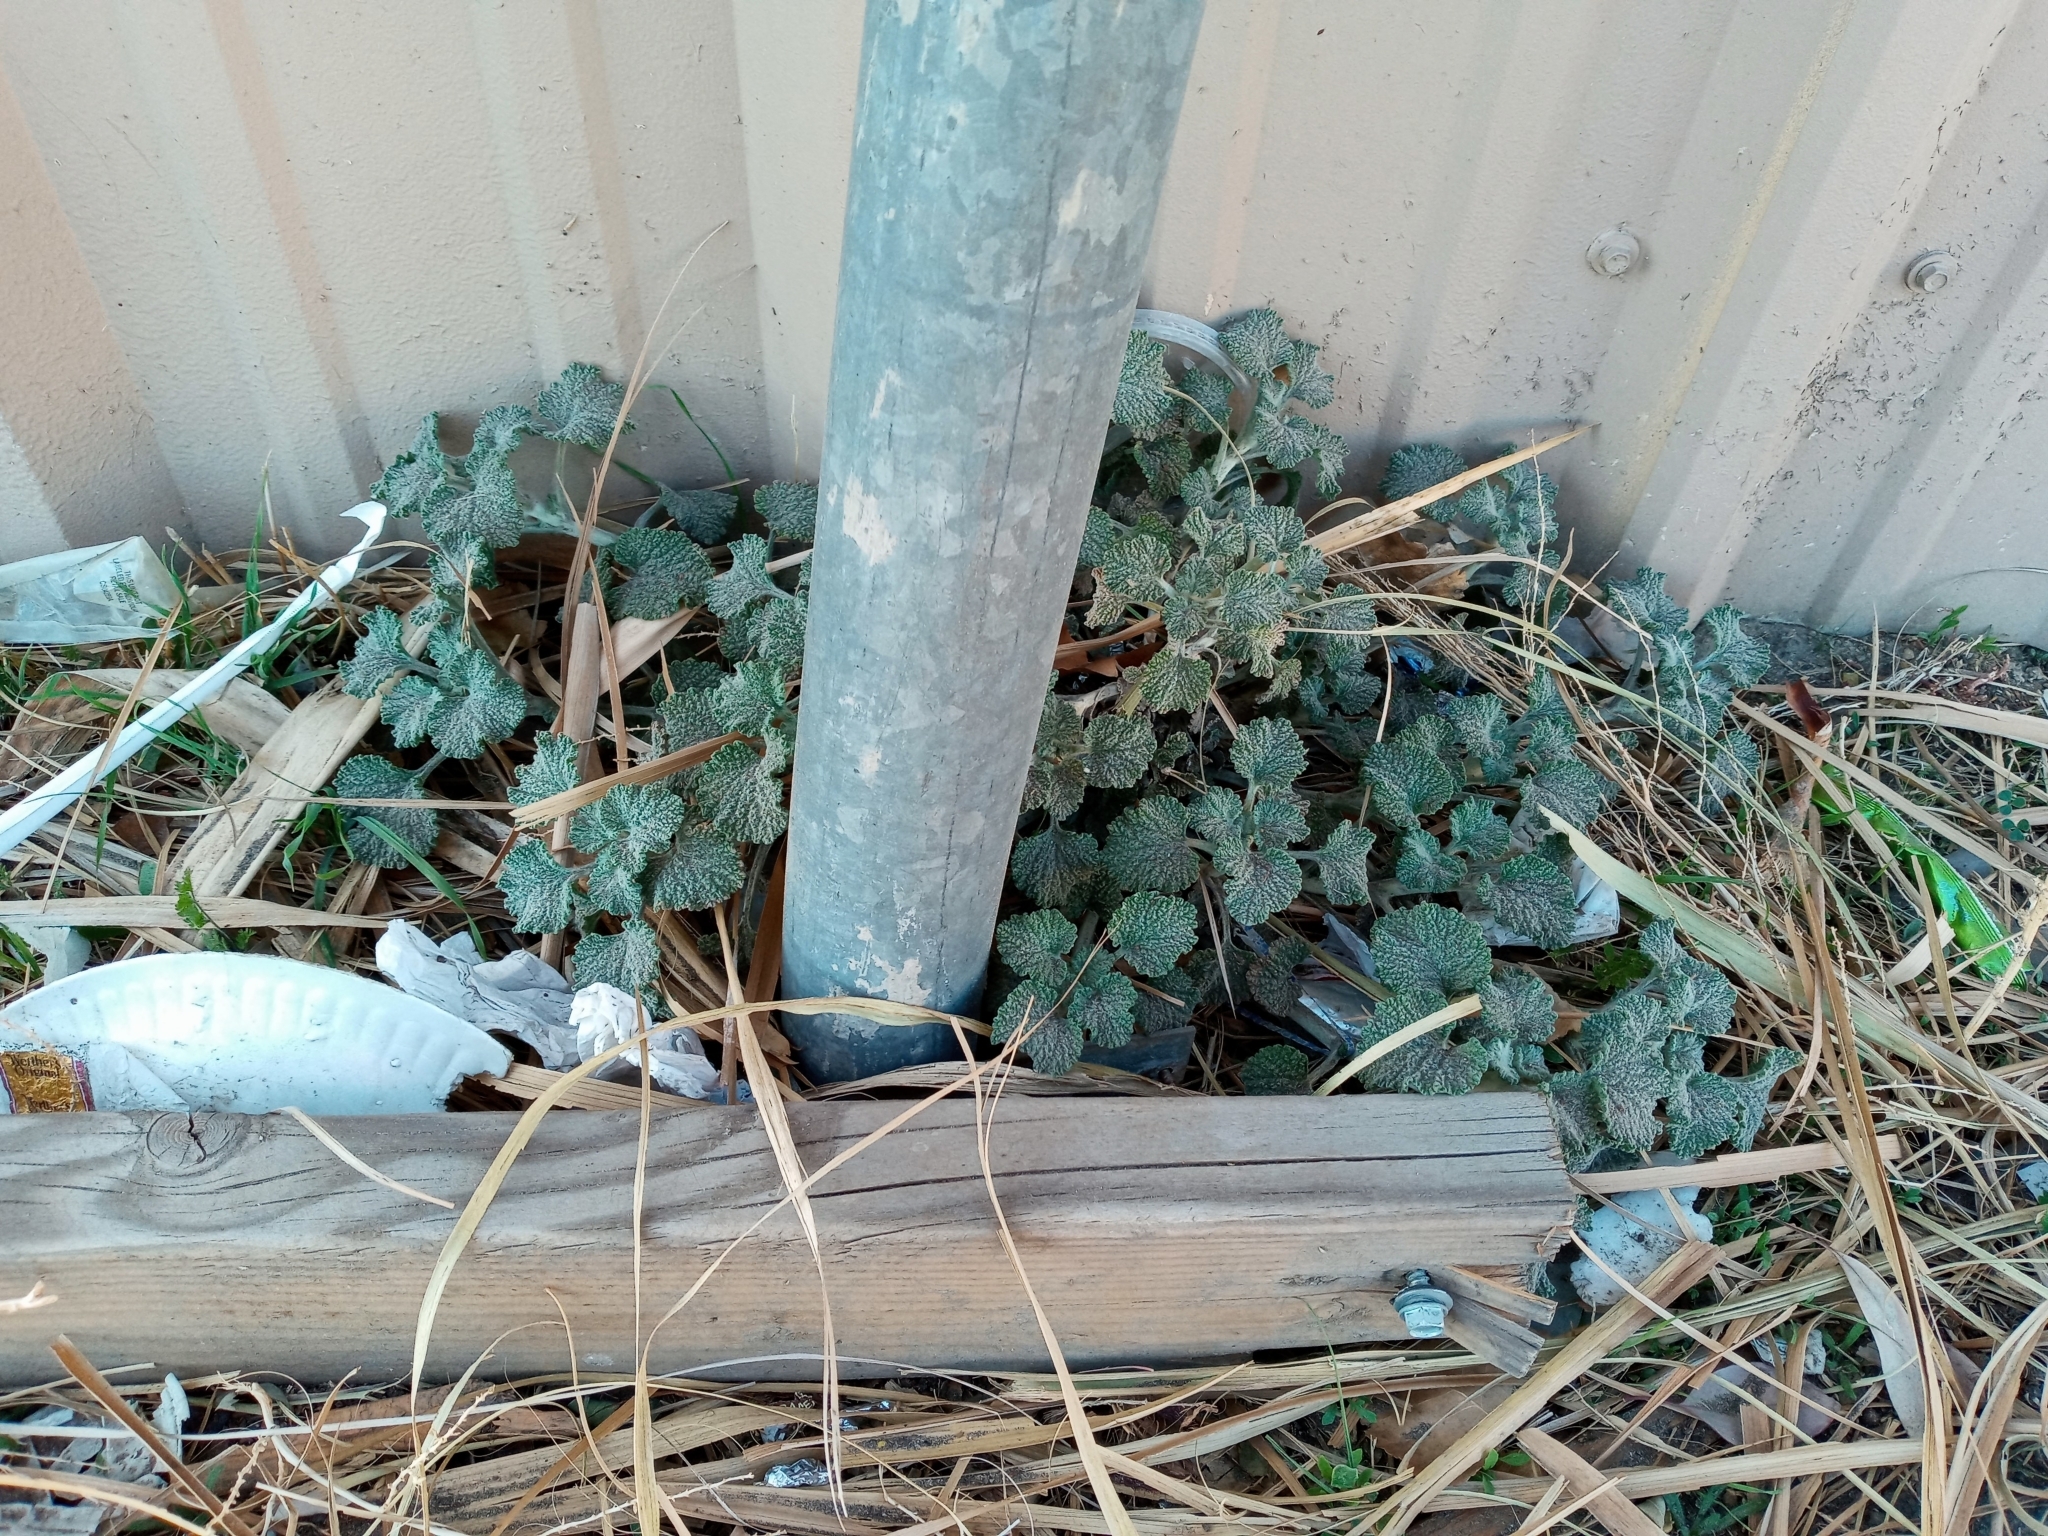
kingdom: Plantae
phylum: Tracheophyta
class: Magnoliopsida
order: Lamiales
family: Lamiaceae
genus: Marrubium
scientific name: Marrubium vulgare
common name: Horehound
